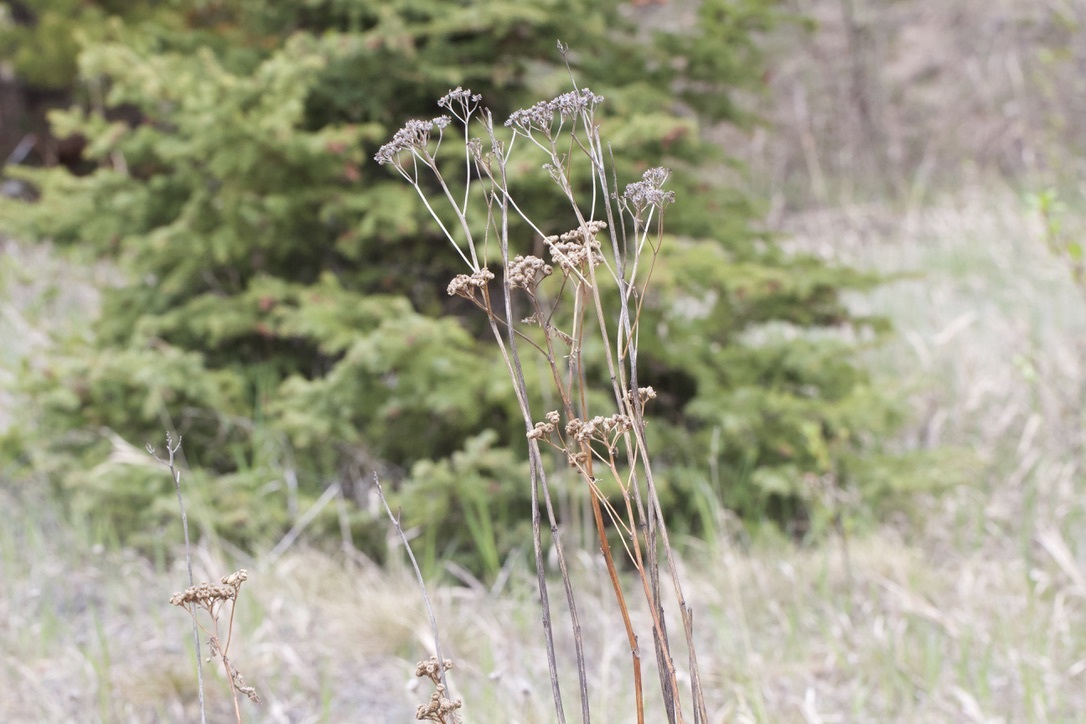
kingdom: Plantae
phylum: Tracheophyta
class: Magnoliopsida
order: Asterales
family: Asteraceae
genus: Tanacetum
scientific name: Tanacetum vulgare
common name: Common tansy
